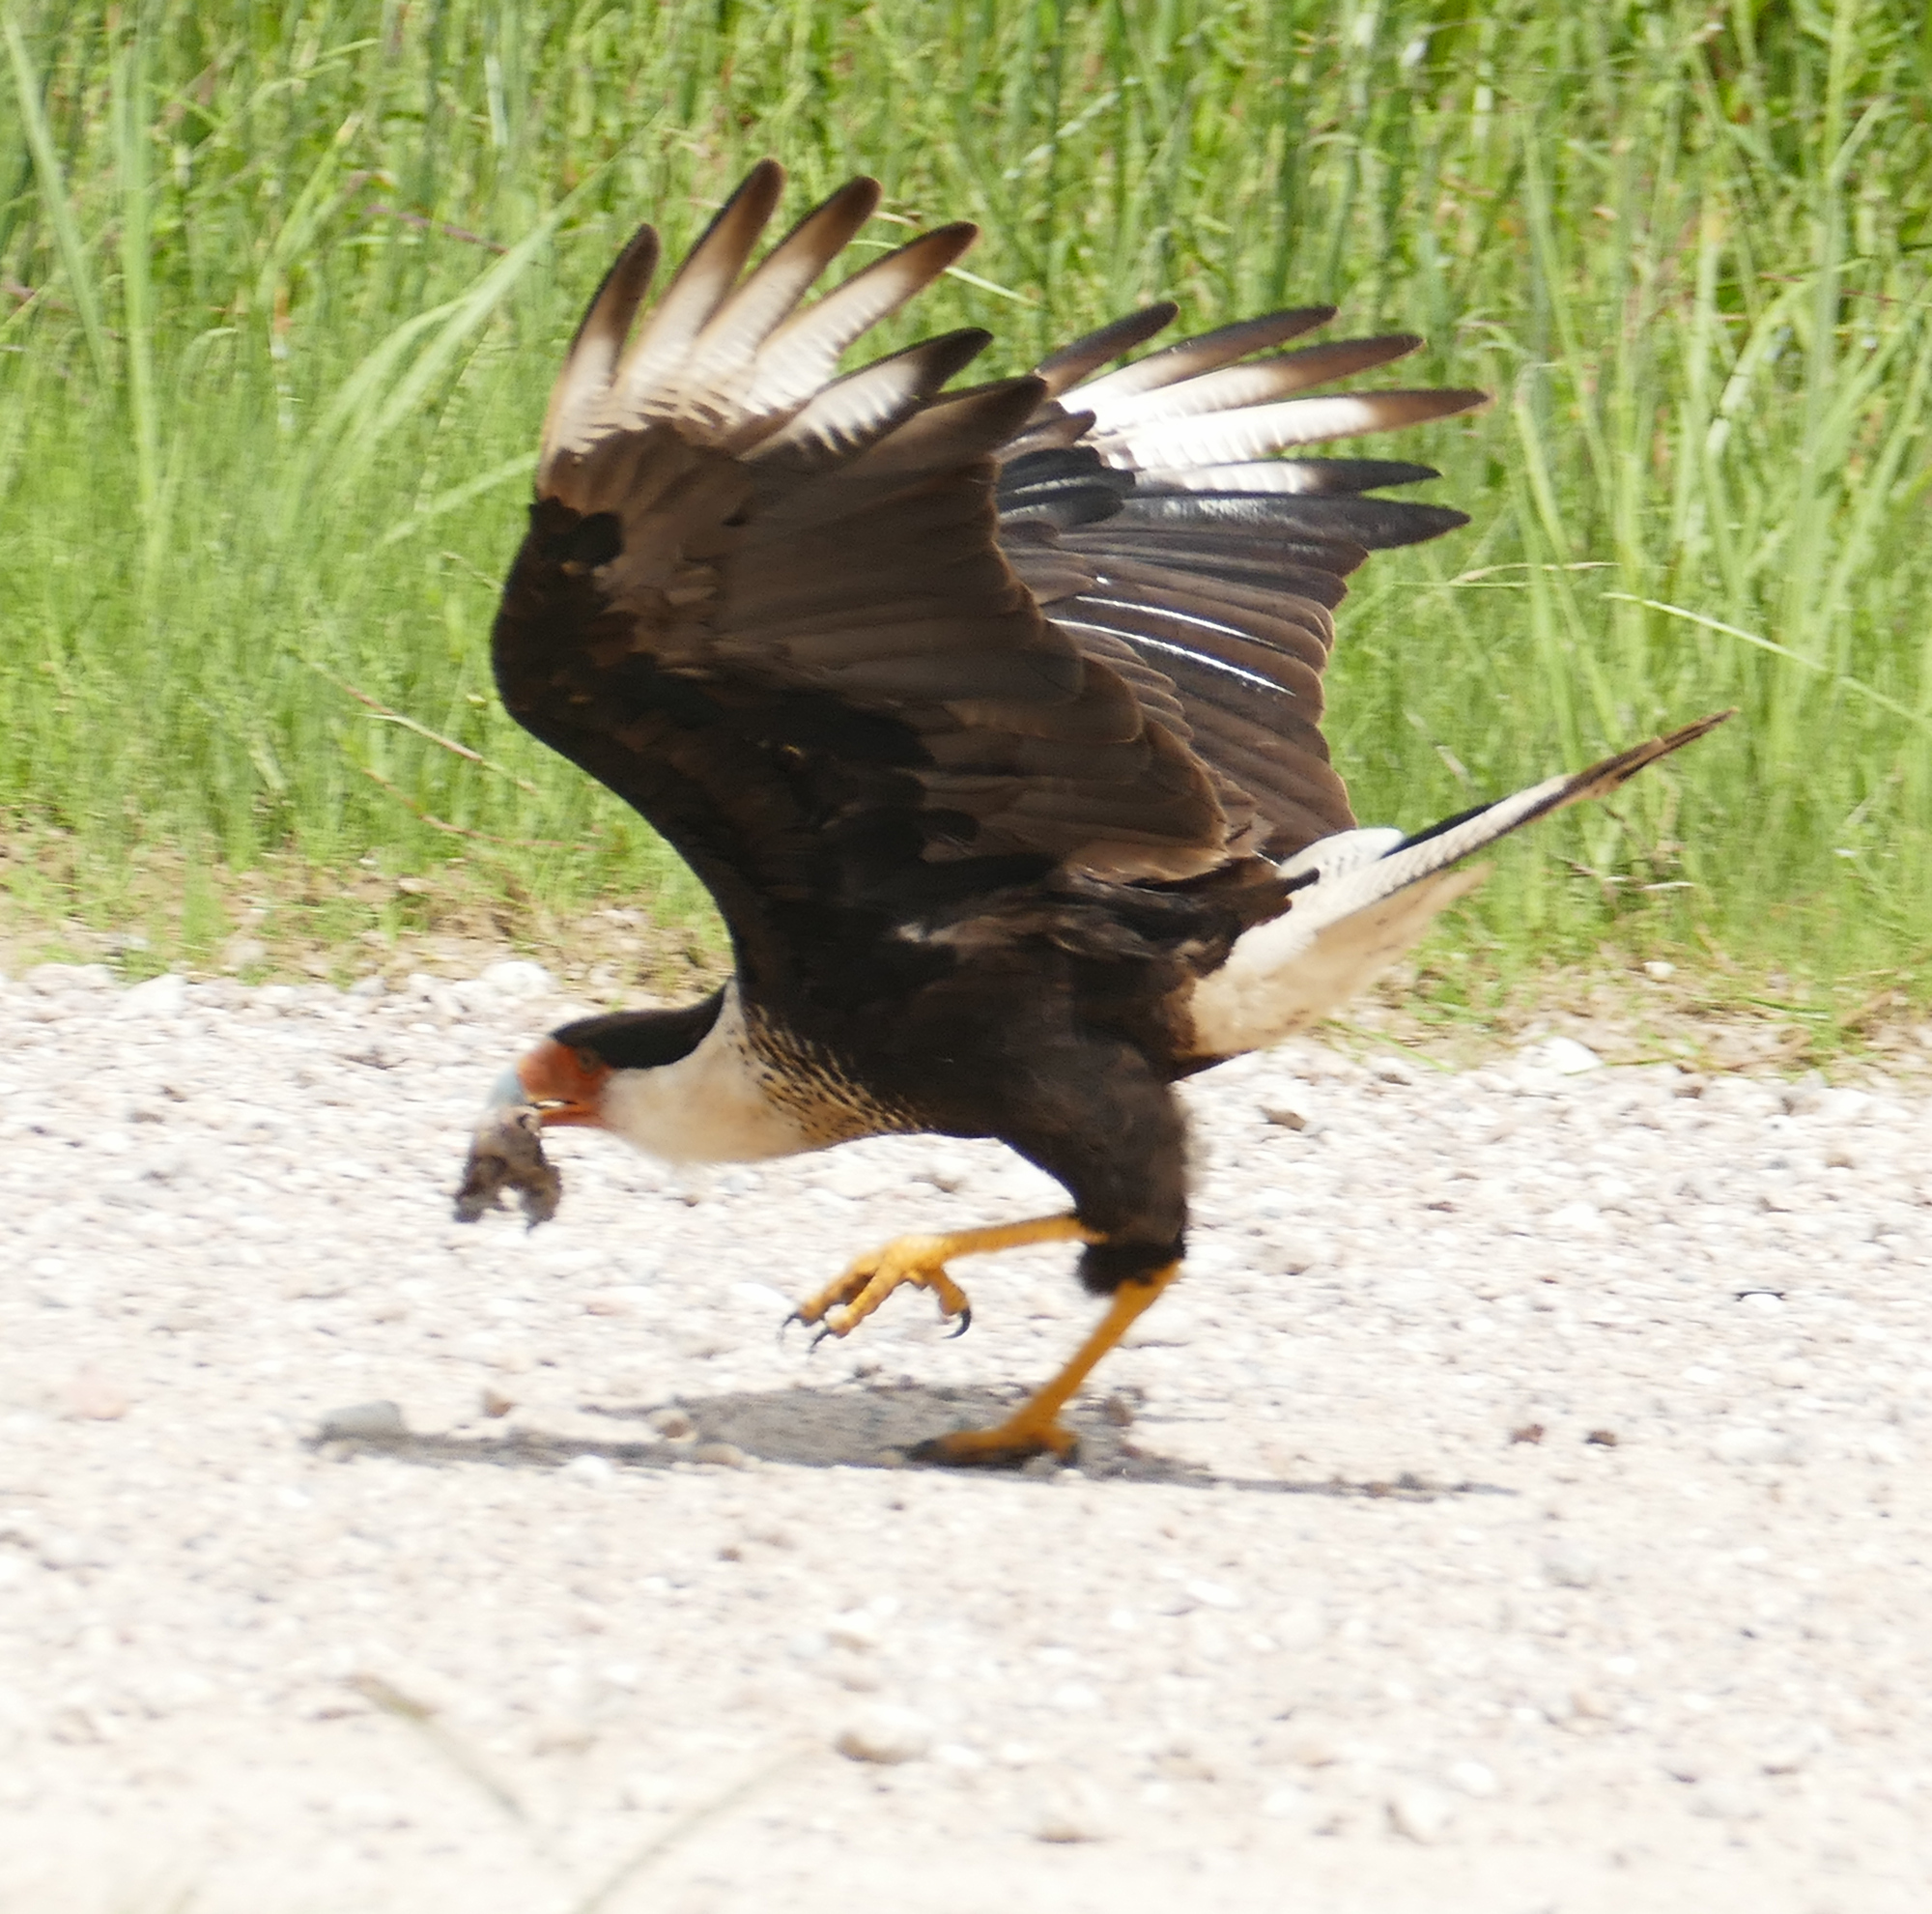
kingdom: Animalia
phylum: Chordata
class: Aves
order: Falconiformes
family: Falconidae
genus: Caracara
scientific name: Caracara plancus
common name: Southern caracara
